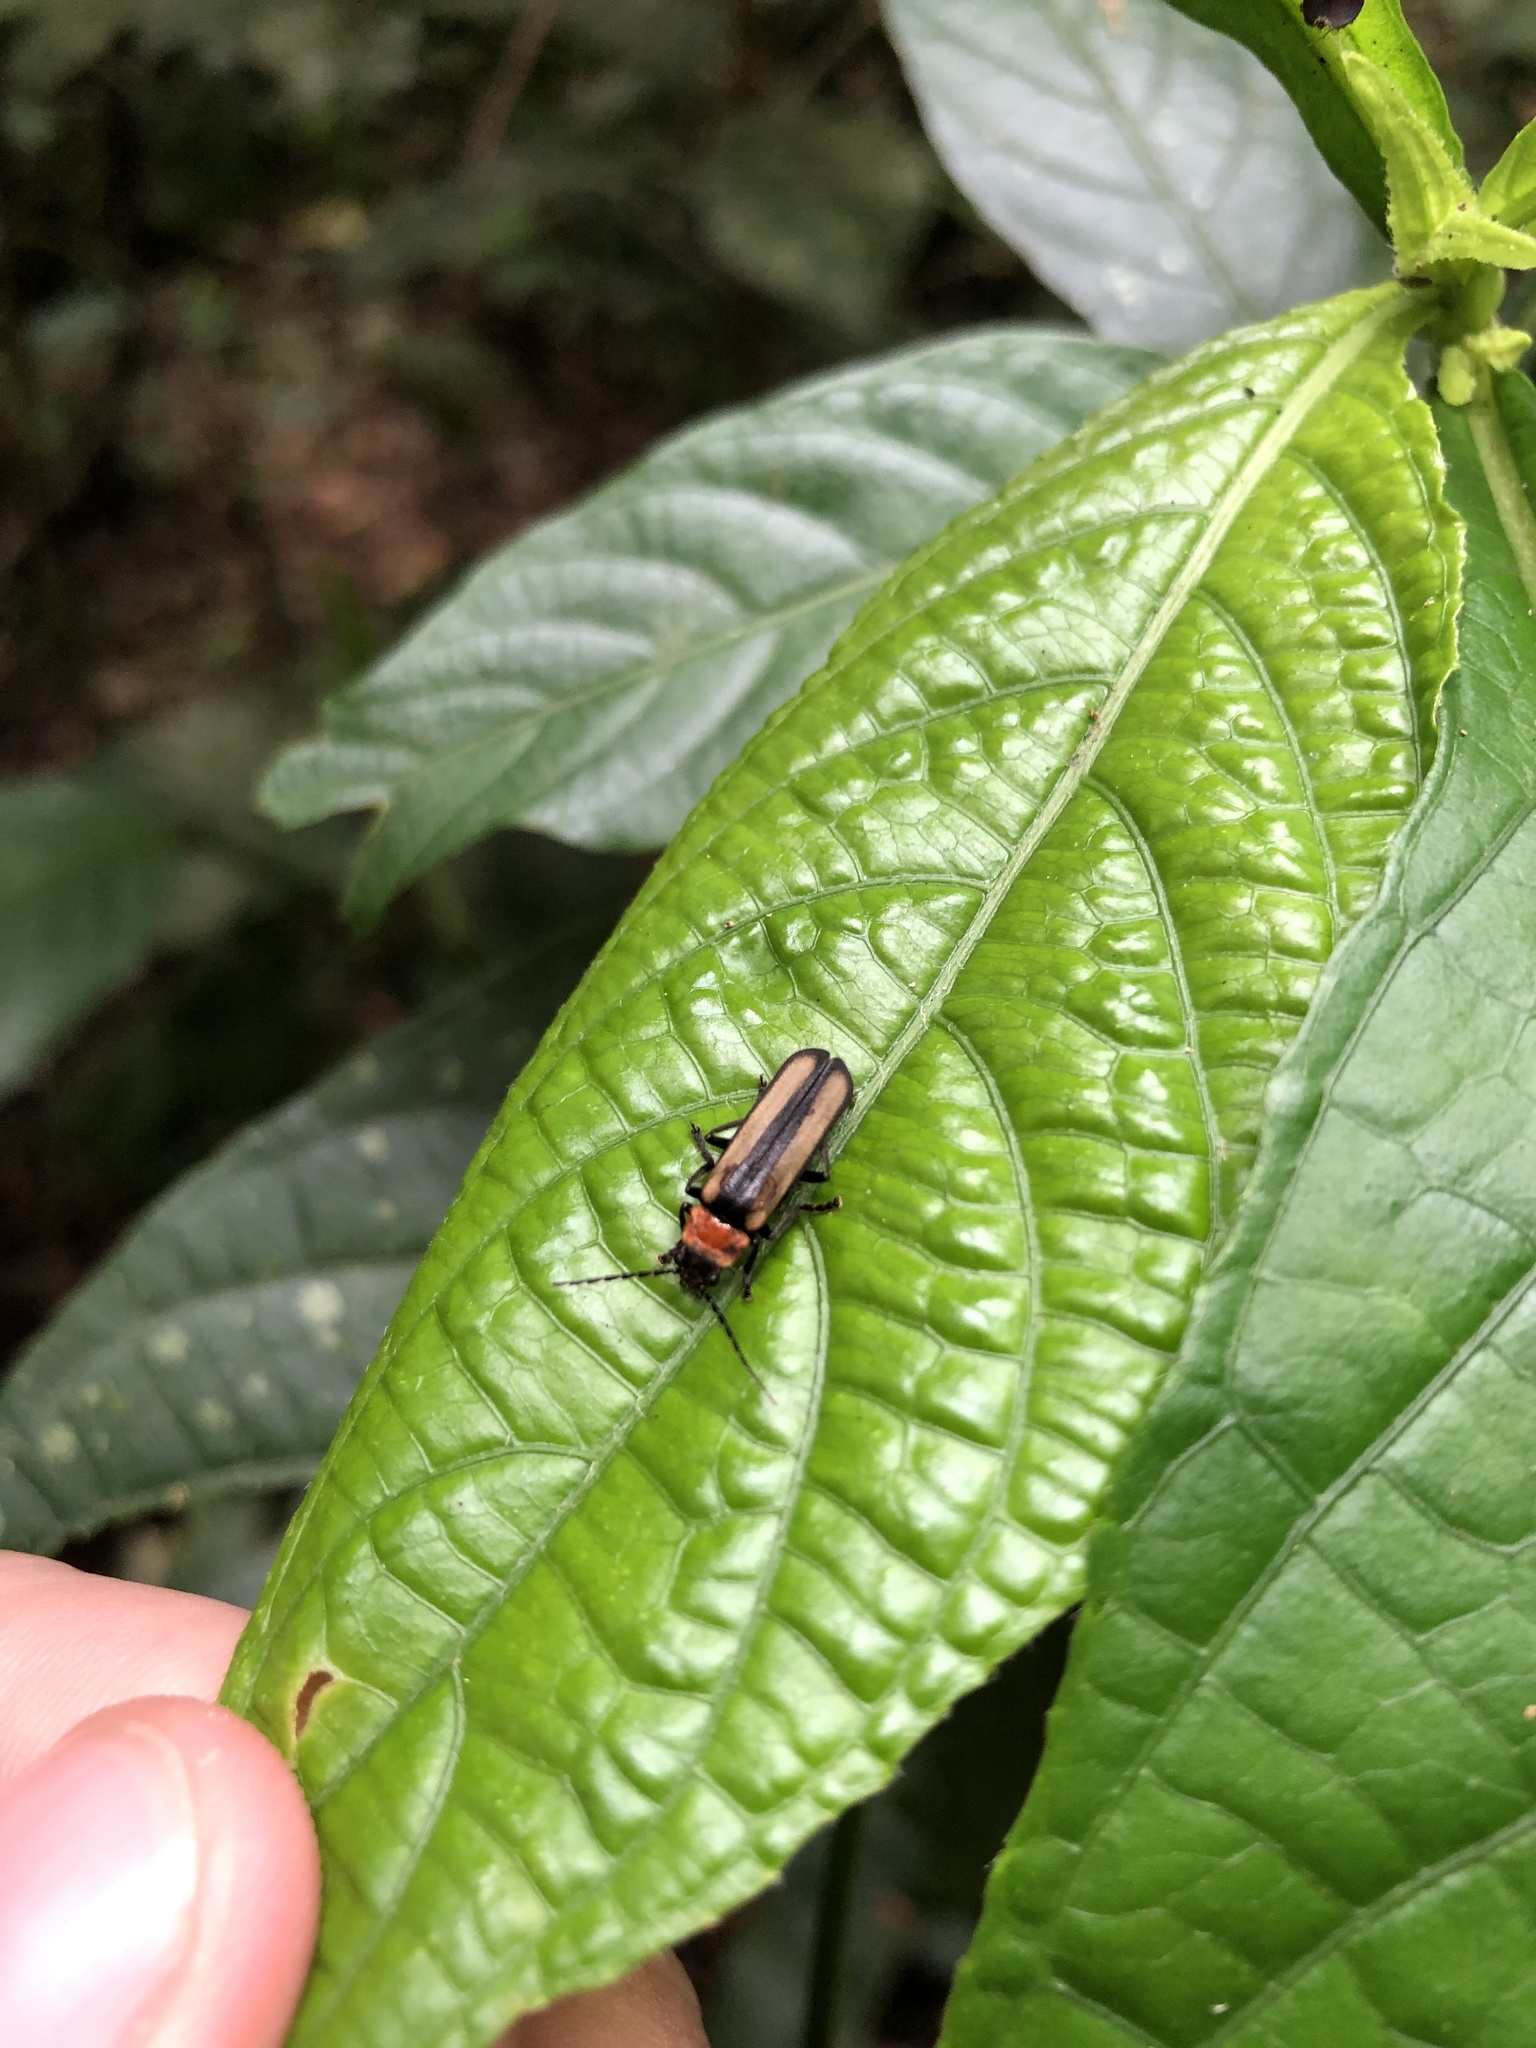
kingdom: Animalia
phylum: Arthropoda
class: Insecta
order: Coleoptera
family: Cantharidae
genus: Discodon
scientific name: Discodon
